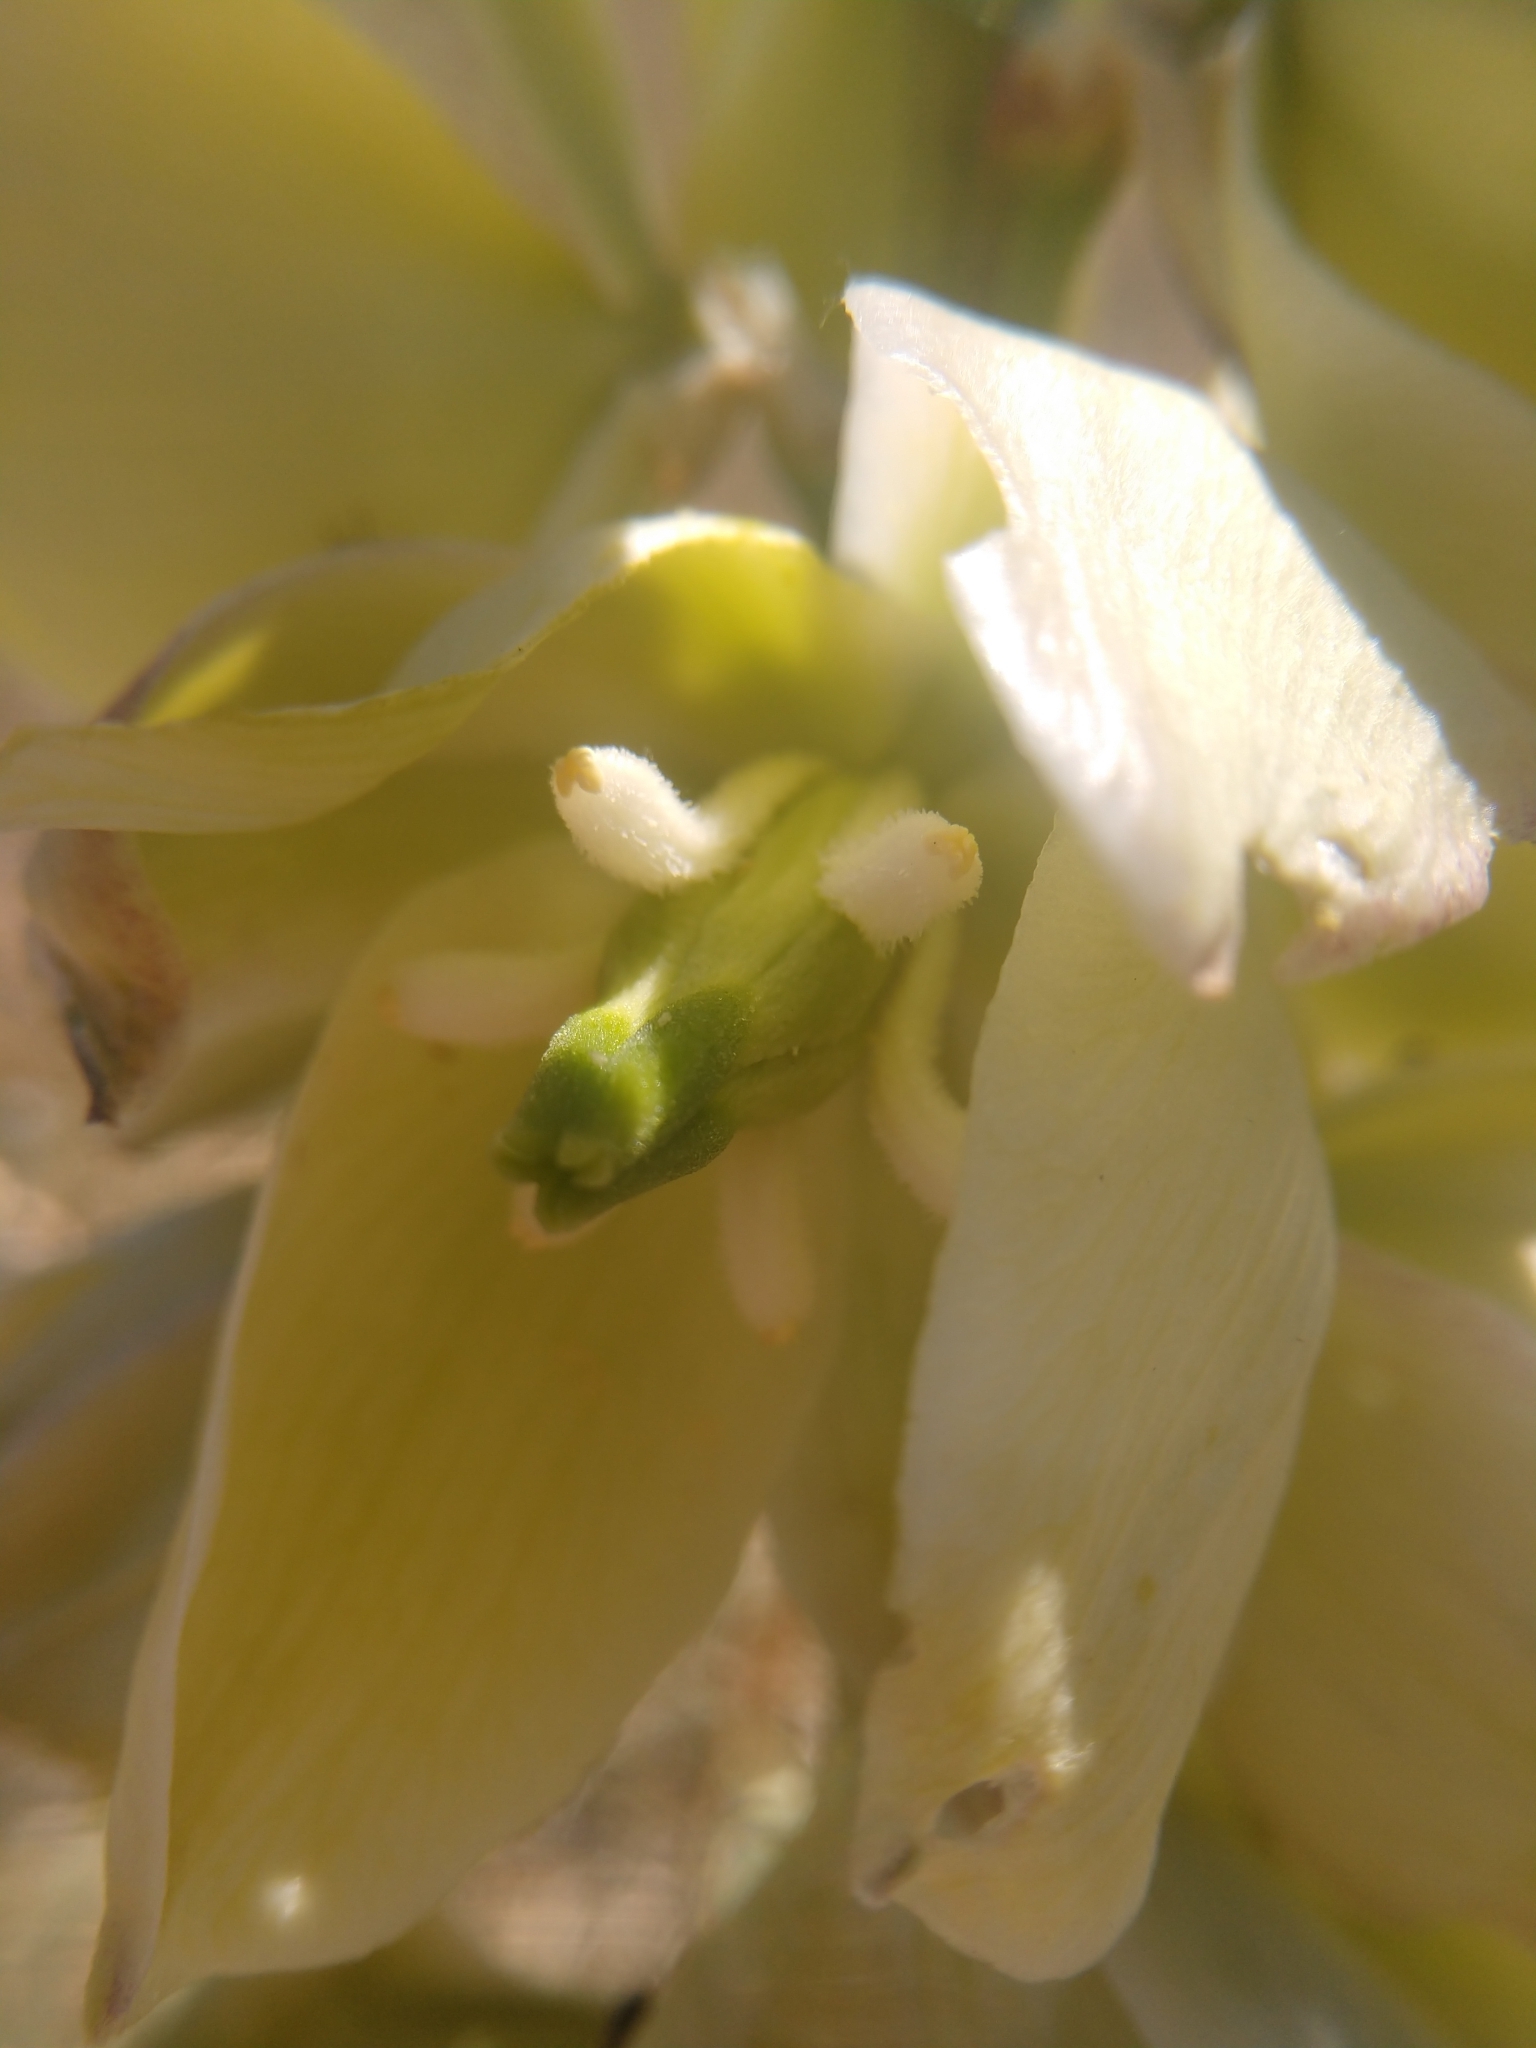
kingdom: Plantae
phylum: Tracheophyta
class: Liliopsida
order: Asparagales
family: Asparagaceae
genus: Yucca
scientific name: Yucca glauca
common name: Great plains yucca
